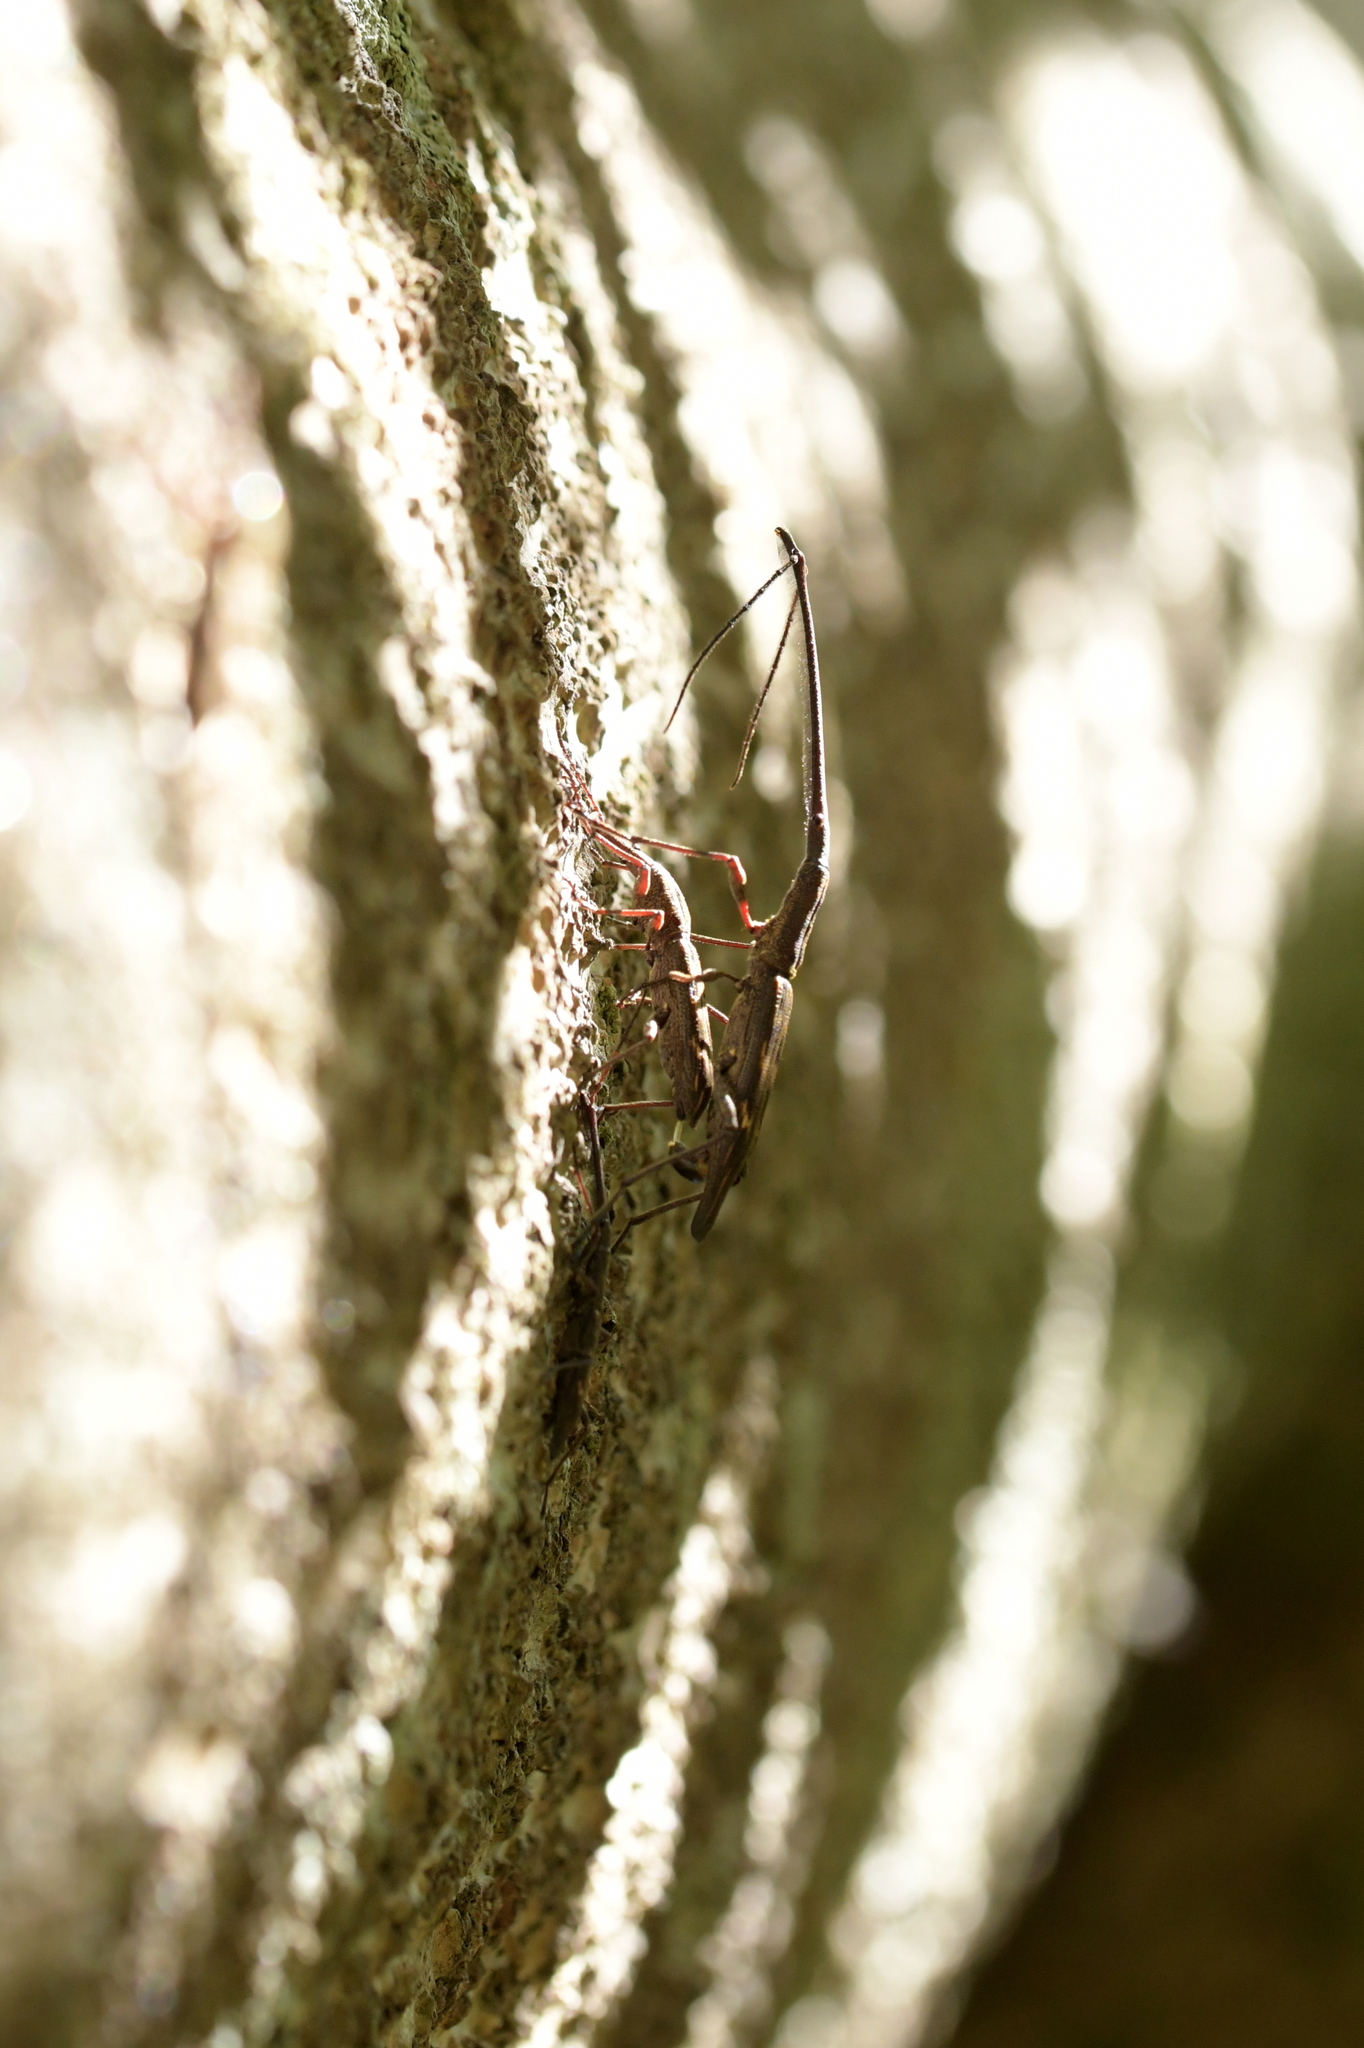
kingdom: Animalia
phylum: Arthropoda
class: Insecta
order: Coleoptera
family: Brentidae
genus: Lasiorhynchus
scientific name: Lasiorhynchus barbicornis
